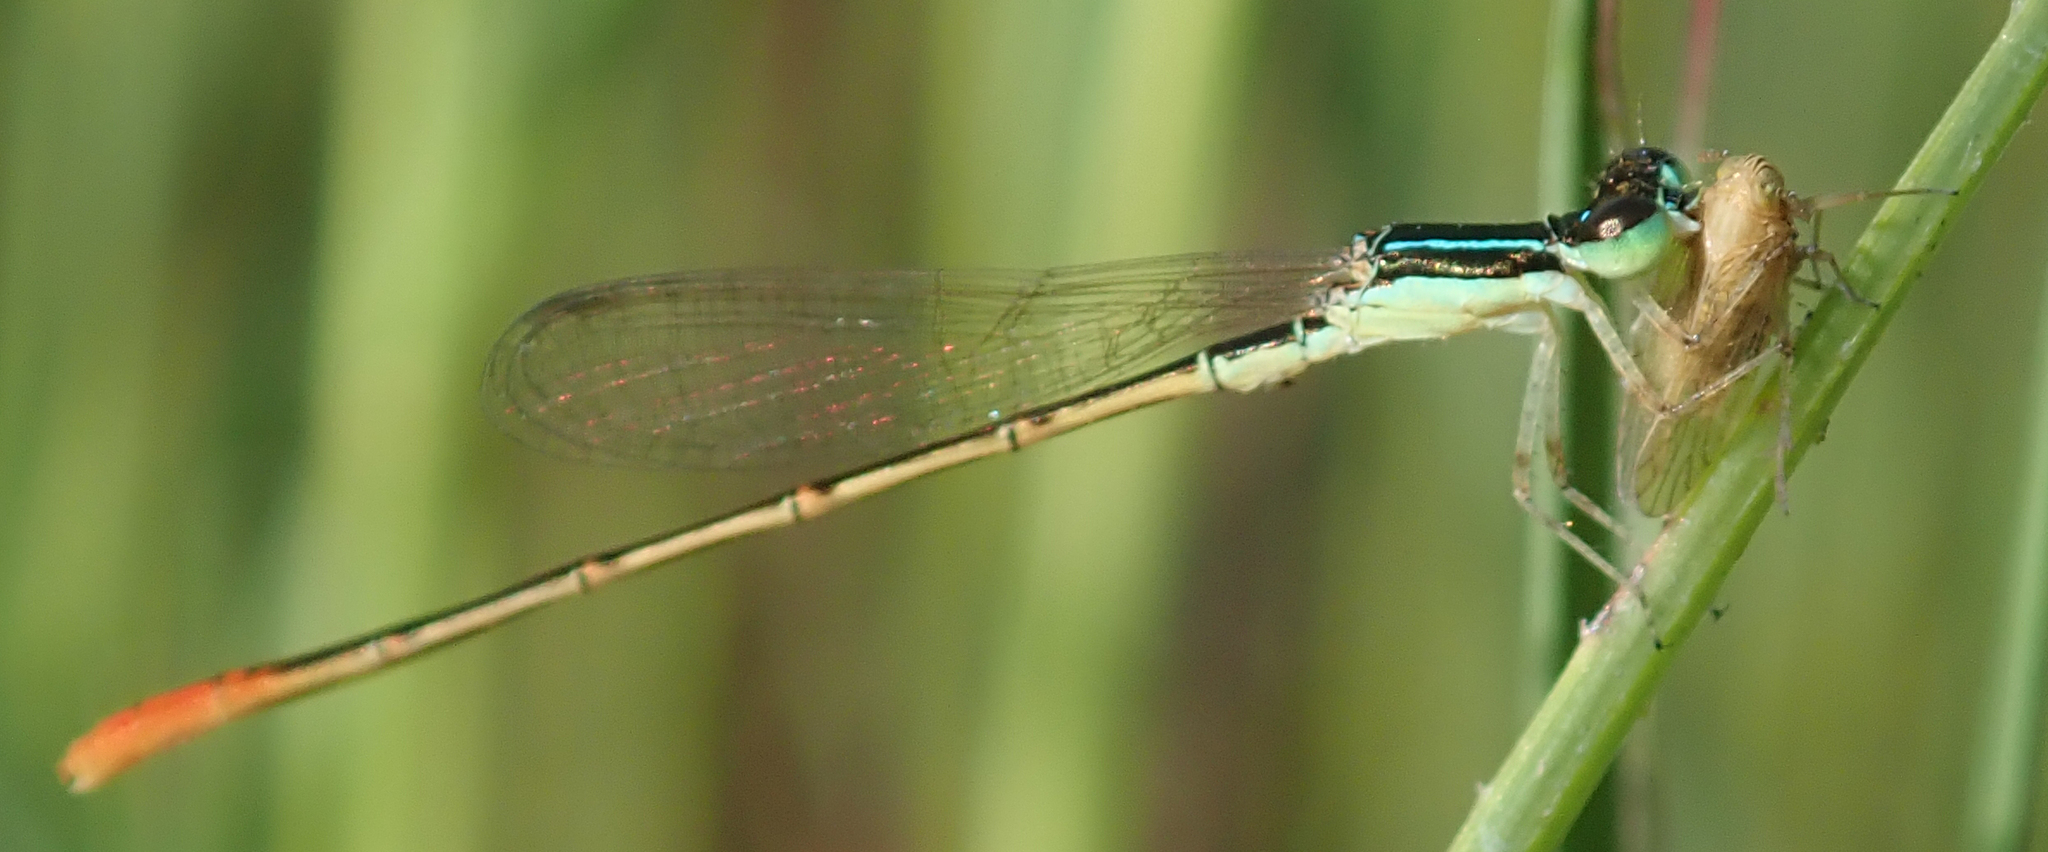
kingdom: Animalia
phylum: Arthropoda
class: Insecta
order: Odonata
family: Coenagrionidae
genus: Agriocnemis
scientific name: Agriocnemis exilis
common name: Little wisp
